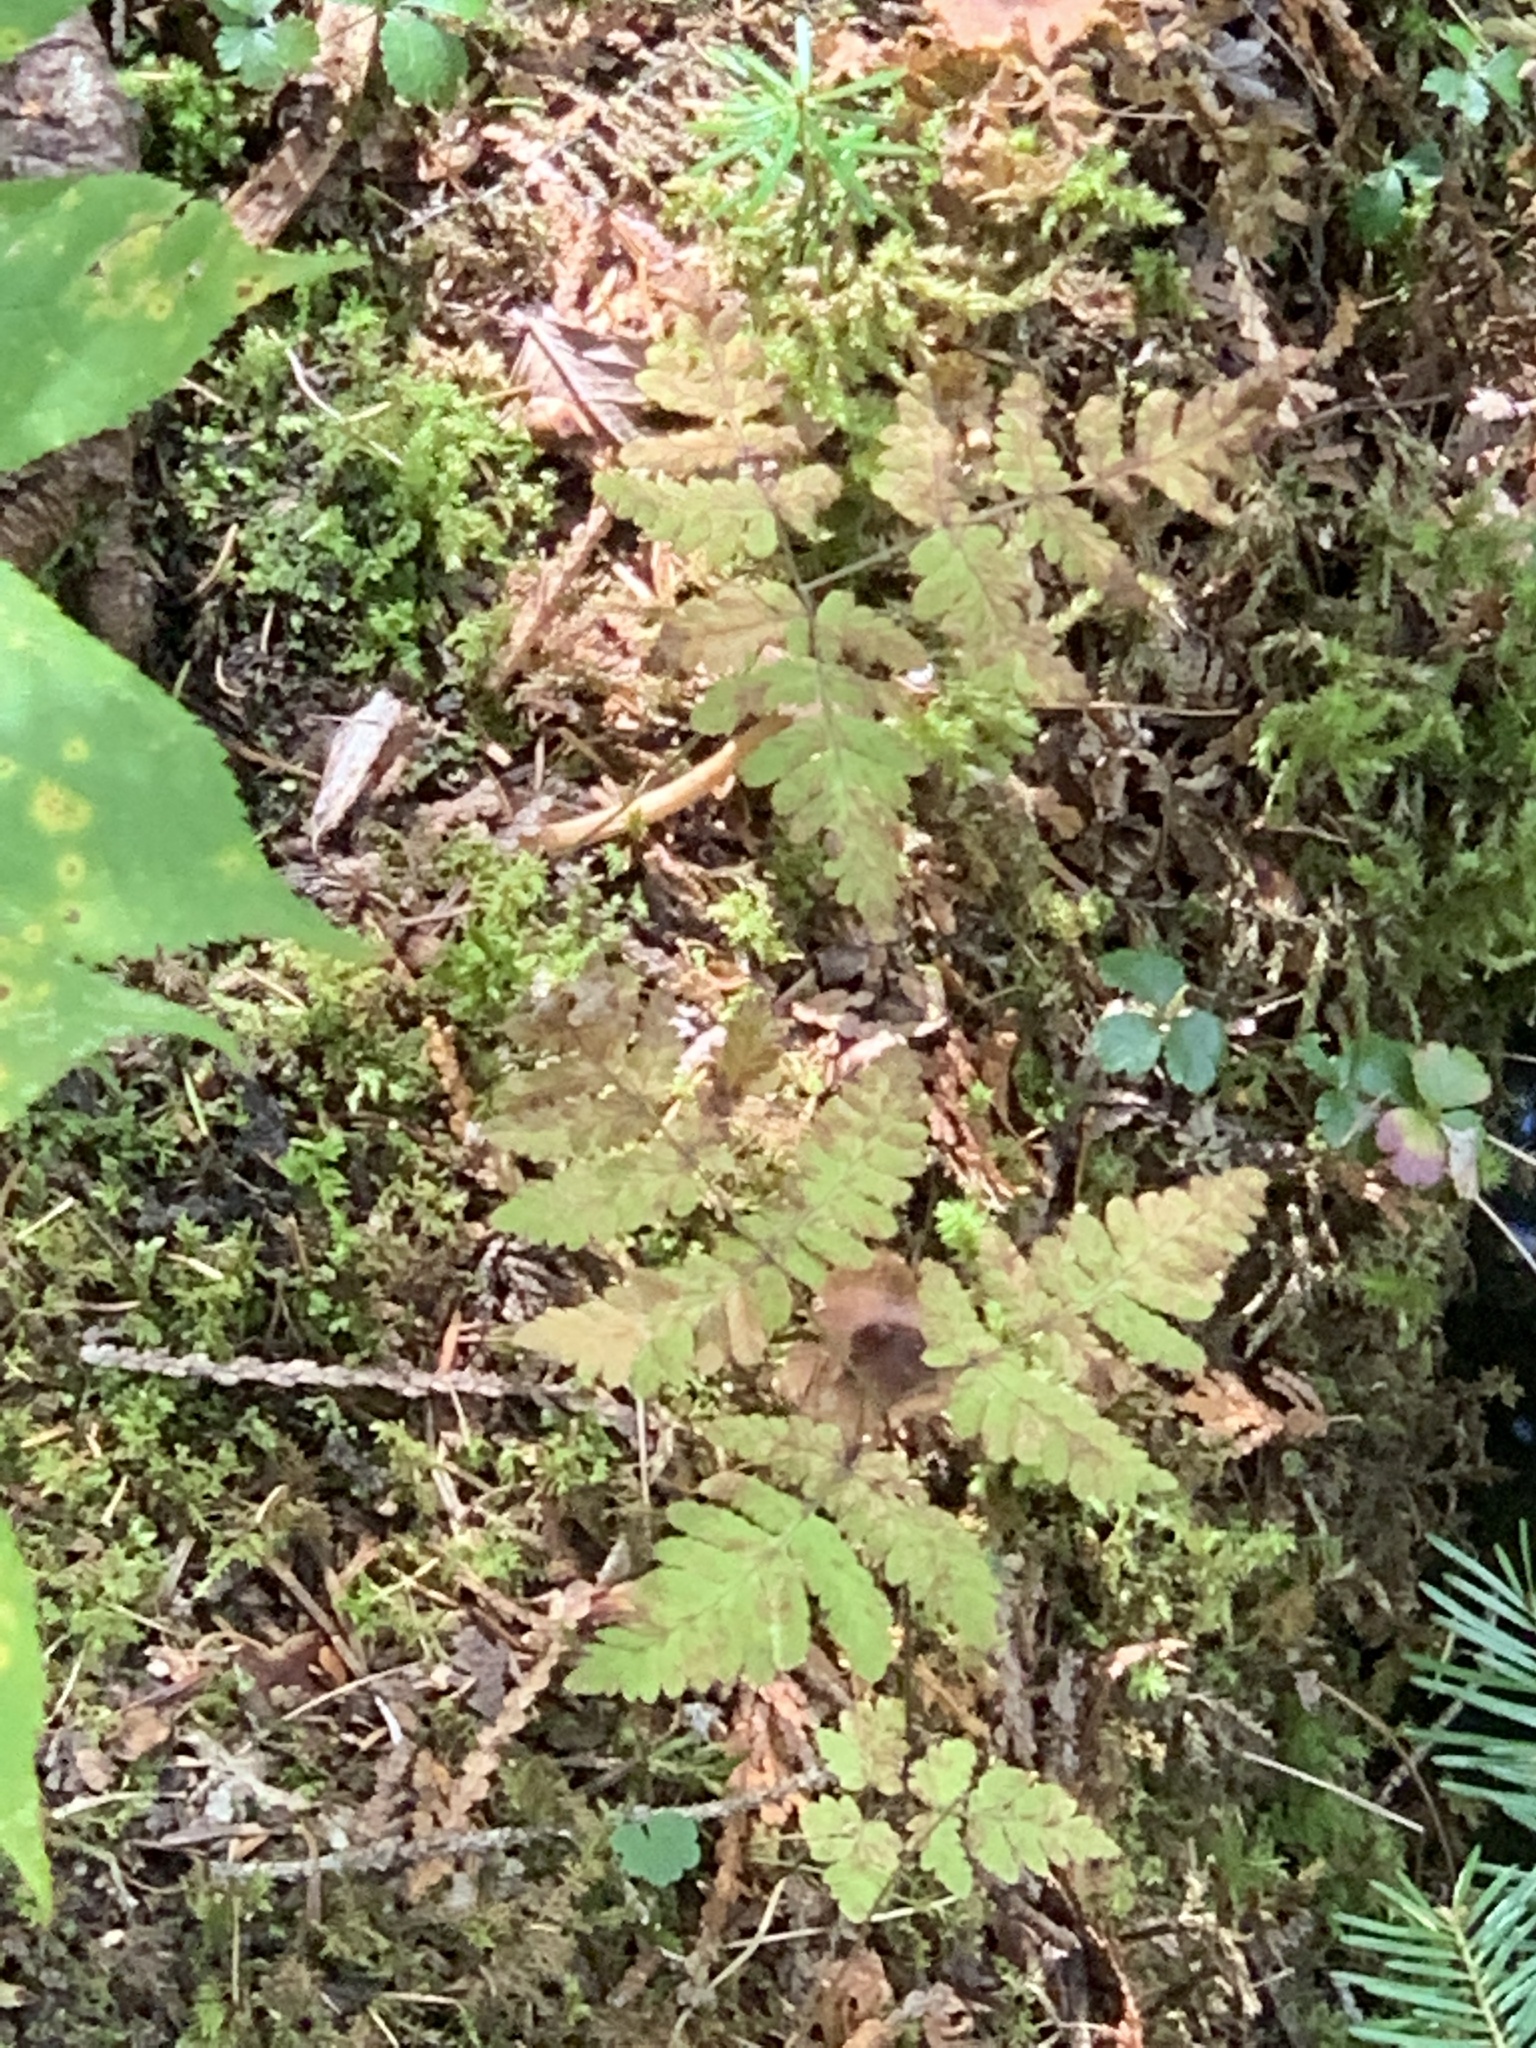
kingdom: Plantae
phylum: Tracheophyta
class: Polypodiopsida
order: Polypodiales
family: Cystopteridaceae
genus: Gymnocarpium
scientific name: Gymnocarpium dryopteris
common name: Oak fern
